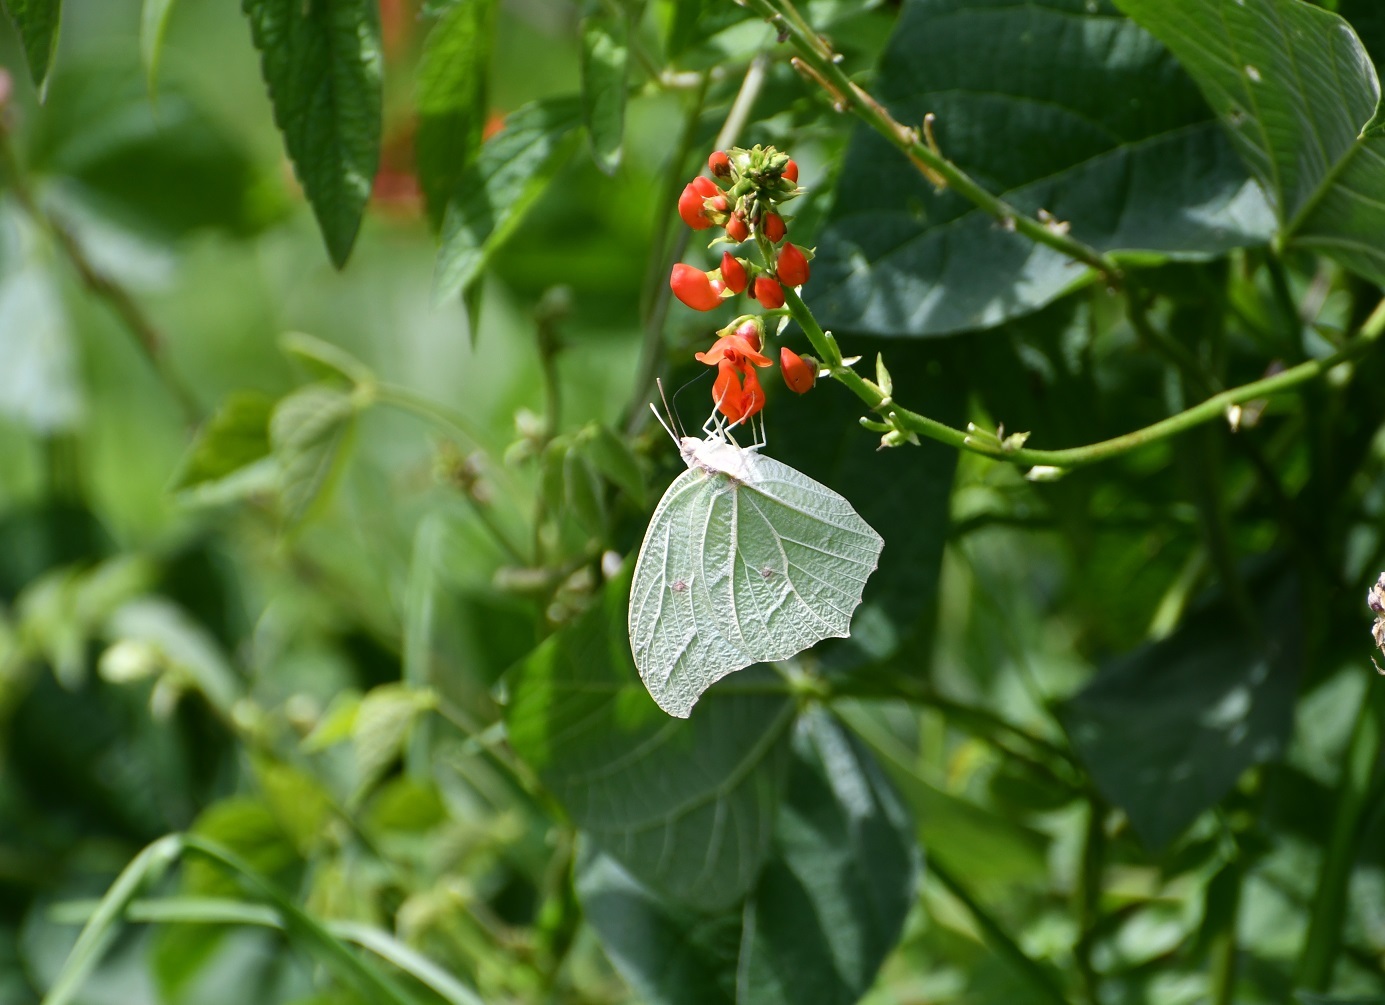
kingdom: Animalia
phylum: Arthropoda
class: Insecta
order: Lepidoptera
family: Pieridae
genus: Anteos
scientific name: Anteos clorinde
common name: White angled sulphur
